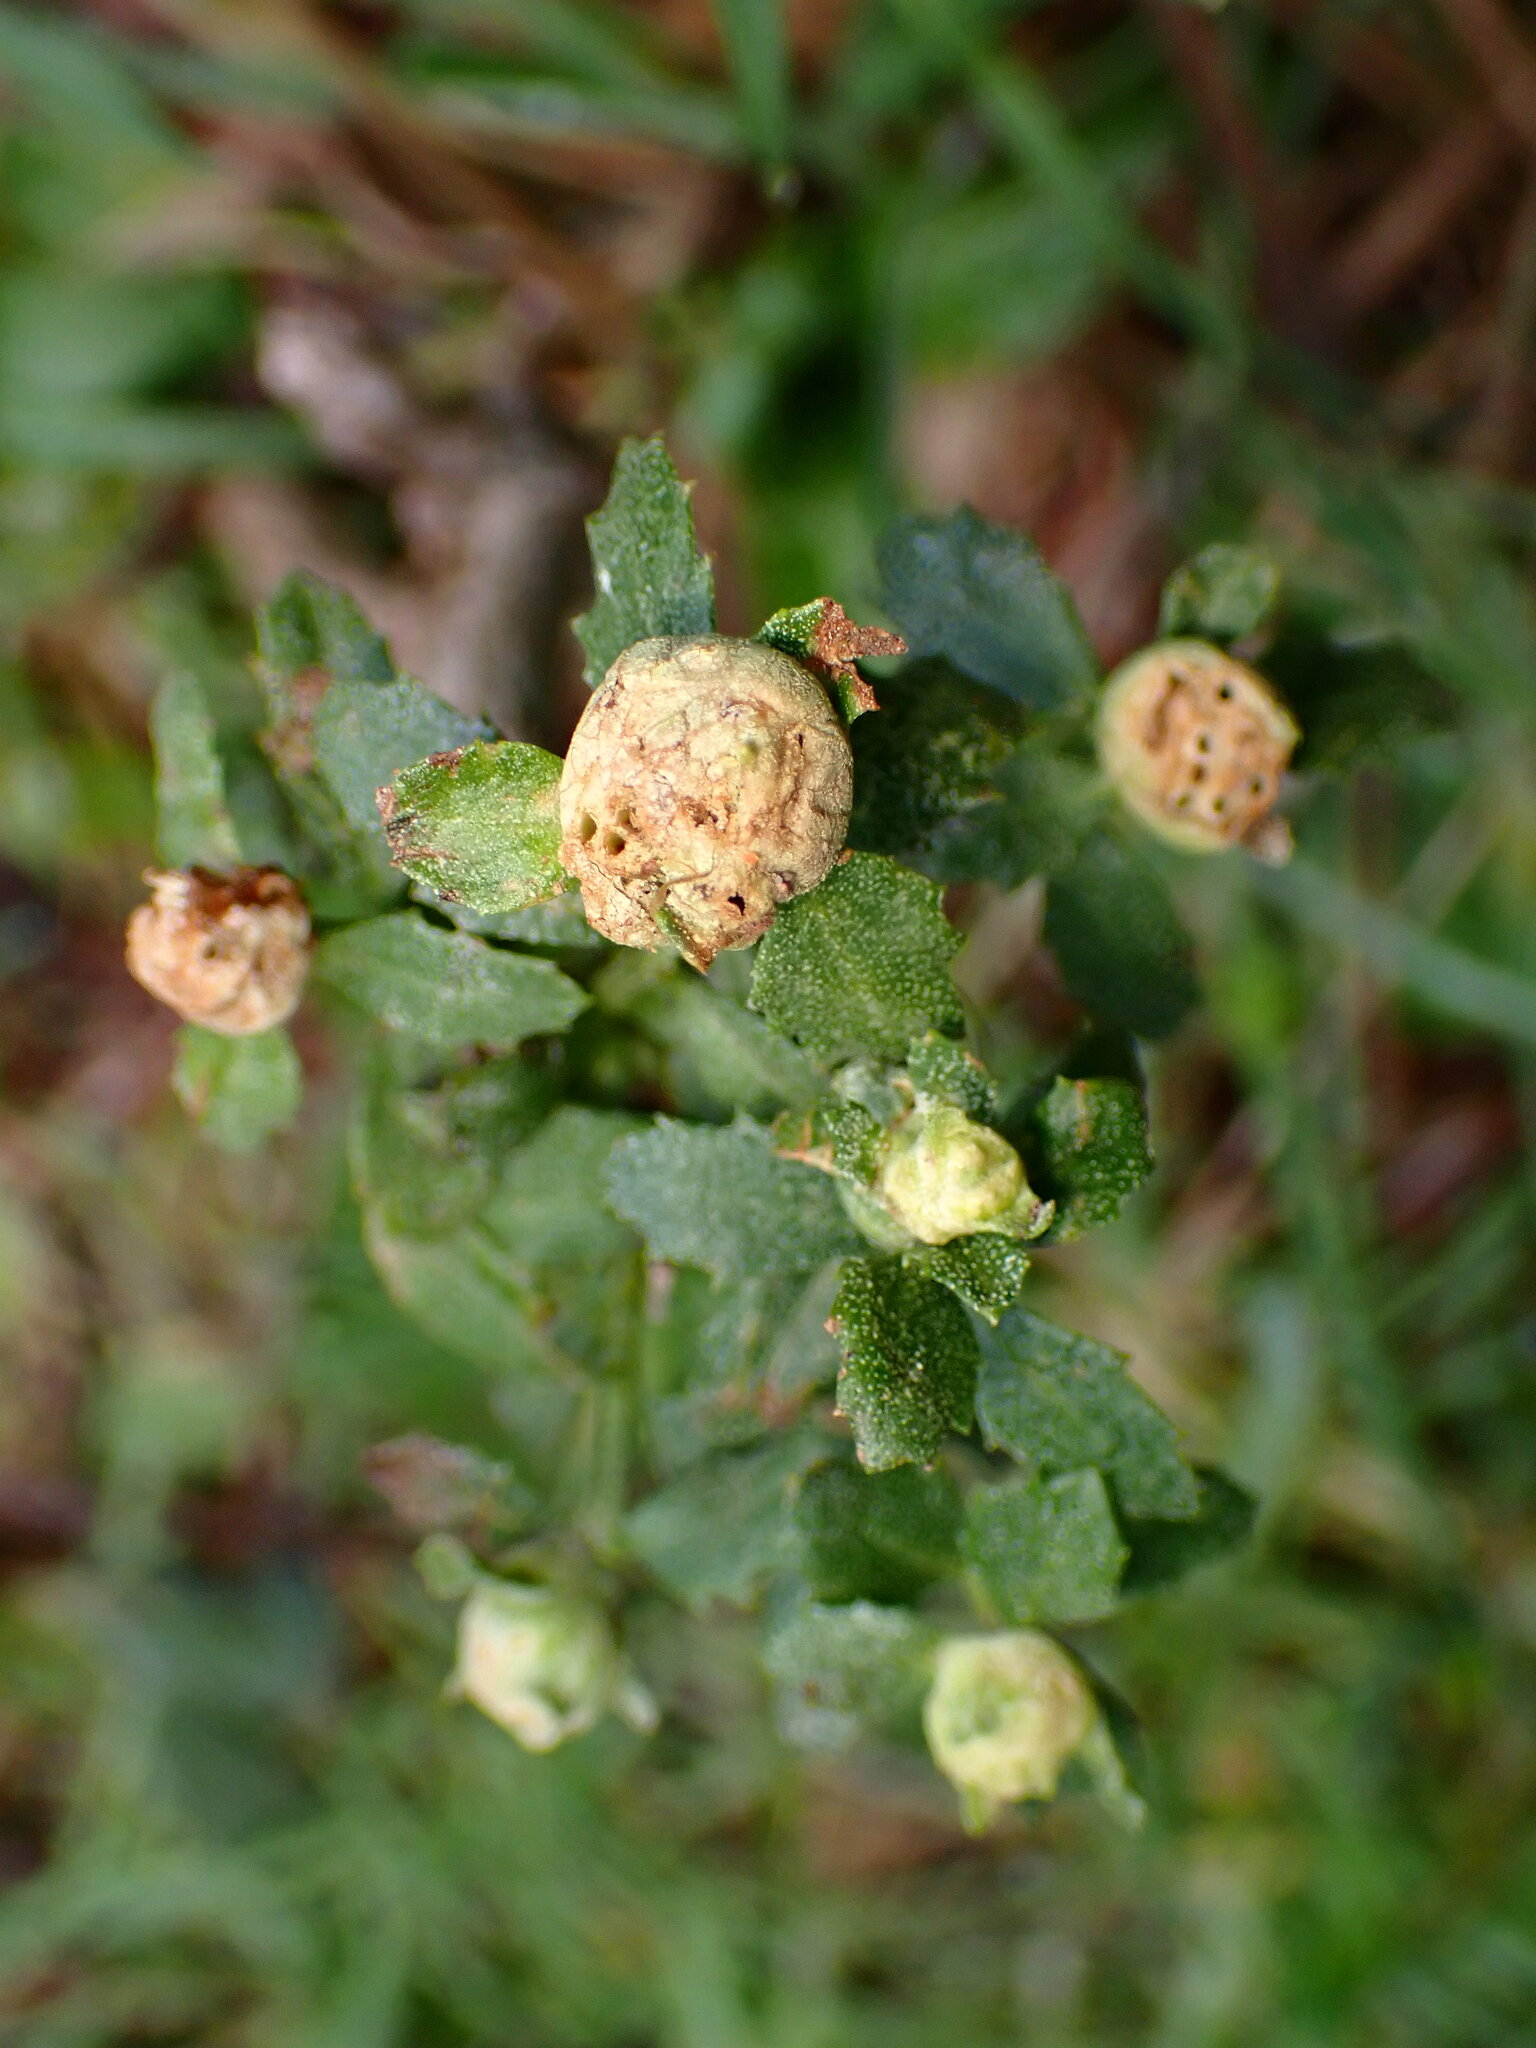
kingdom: Animalia
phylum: Arthropoda
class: Insecta
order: Diptera
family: Cecidomyiidae
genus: Rhopalomyia
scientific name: Rhopalomyia californica
